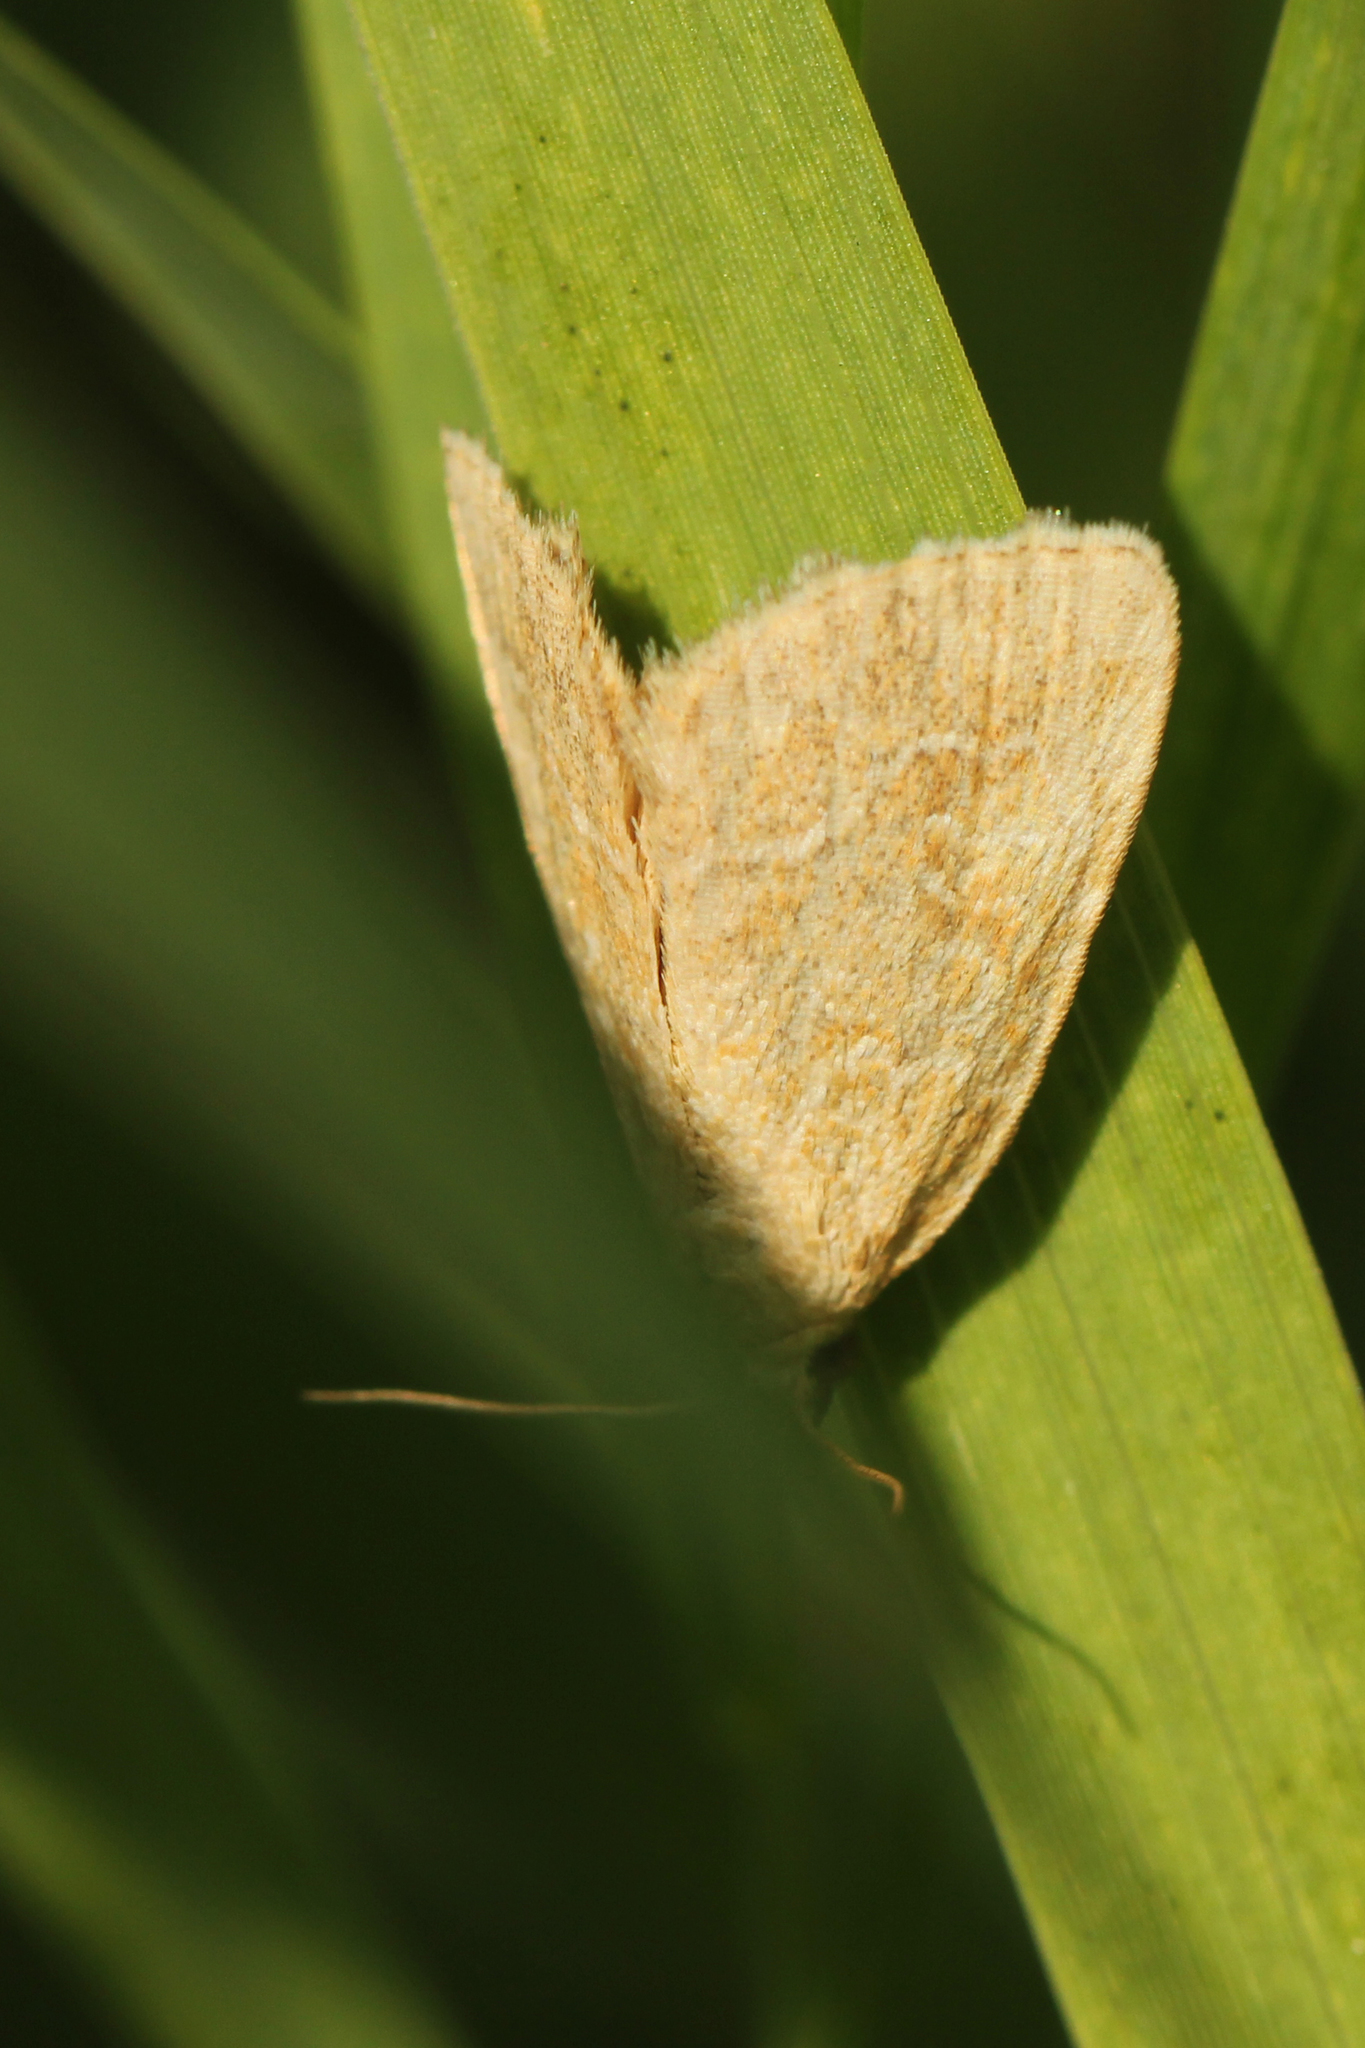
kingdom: Animalia
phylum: Arthropoda
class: Insecta
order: Lepidoptera
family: Noctuidae
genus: Protodeltote
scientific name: Protodeltote albidula
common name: Pale glyph
